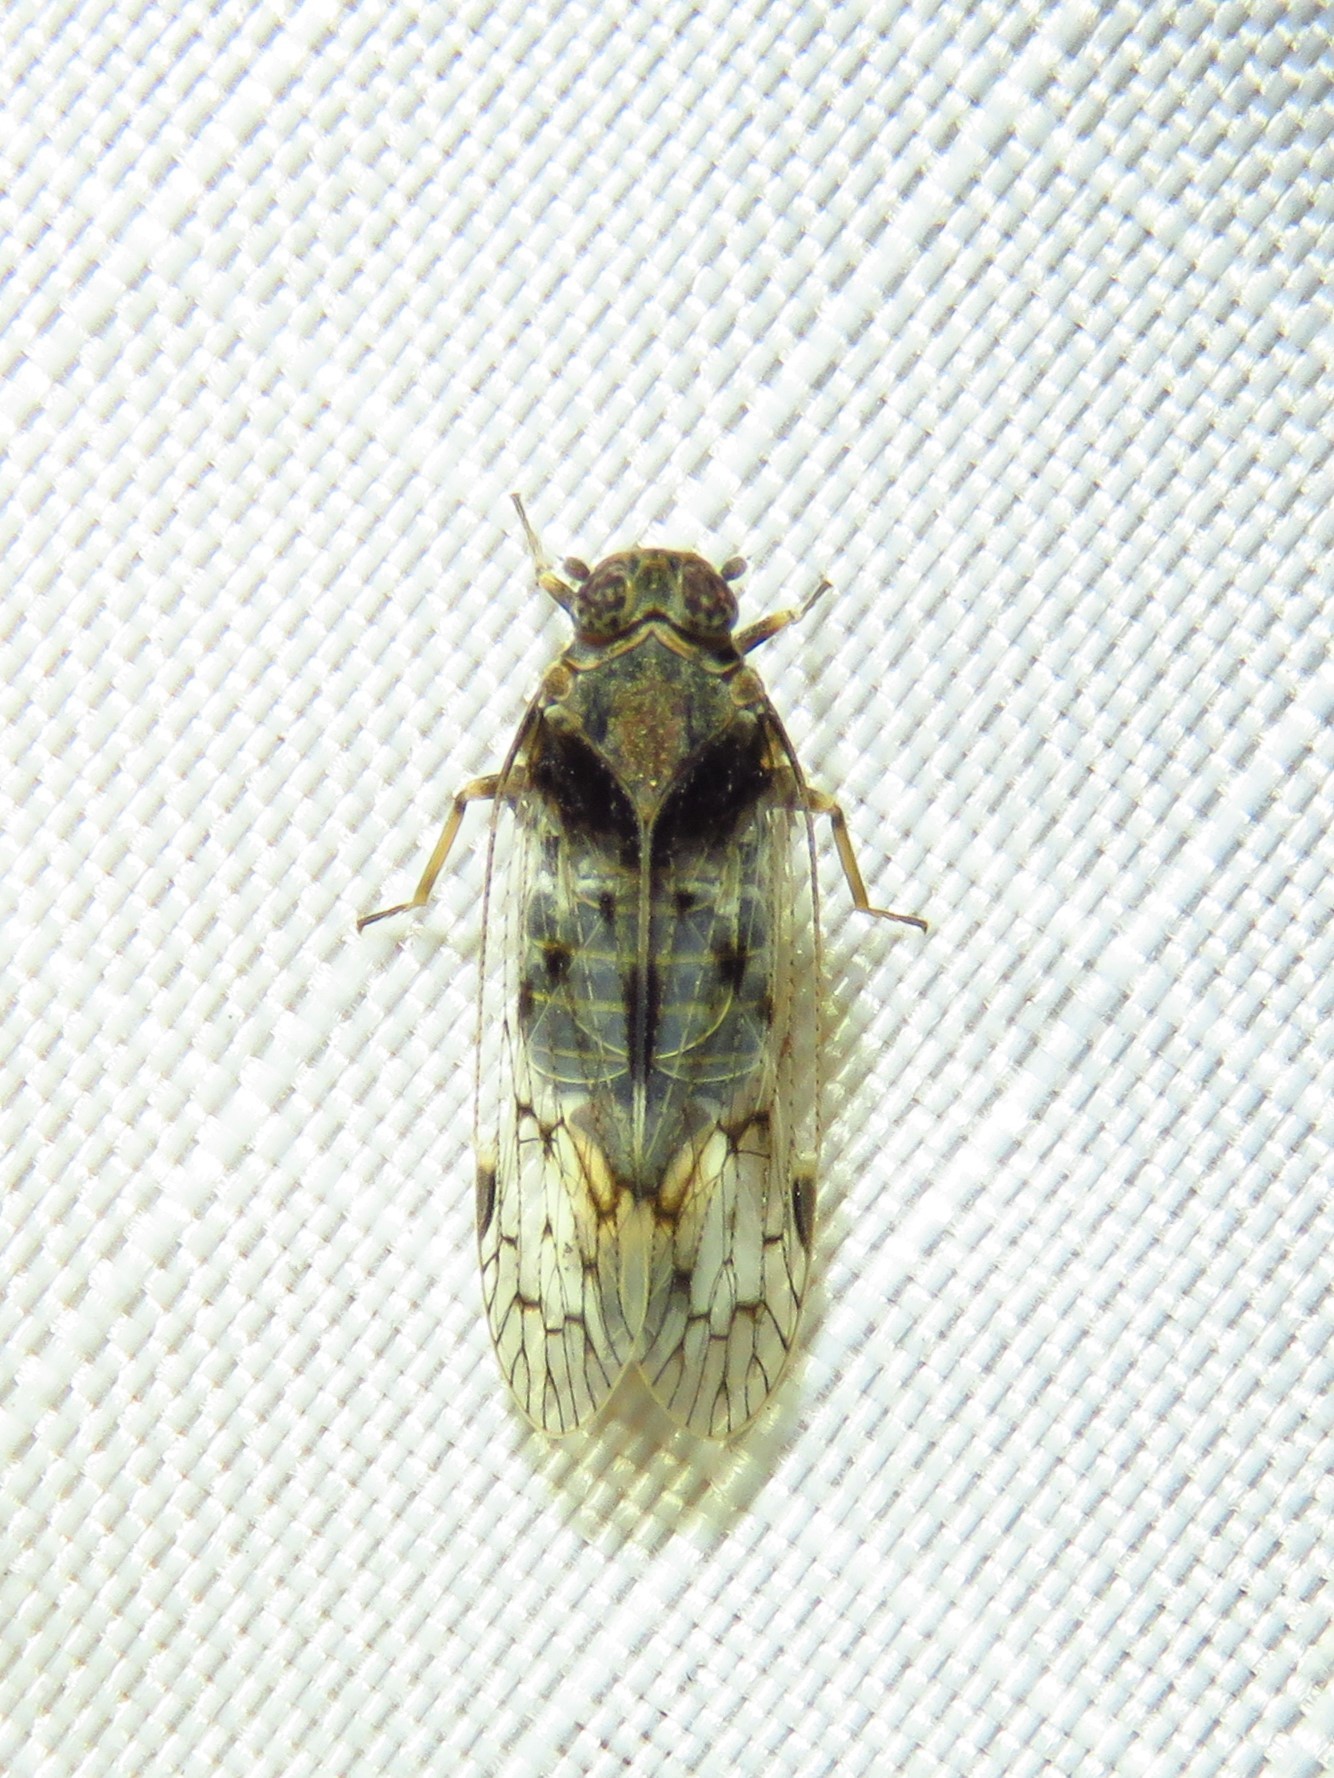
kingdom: Animalia
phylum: Arthropoda
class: Insecta
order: Hemiptera
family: Cixiidae
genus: Melanoliarus
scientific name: Melanoliarus aridus
